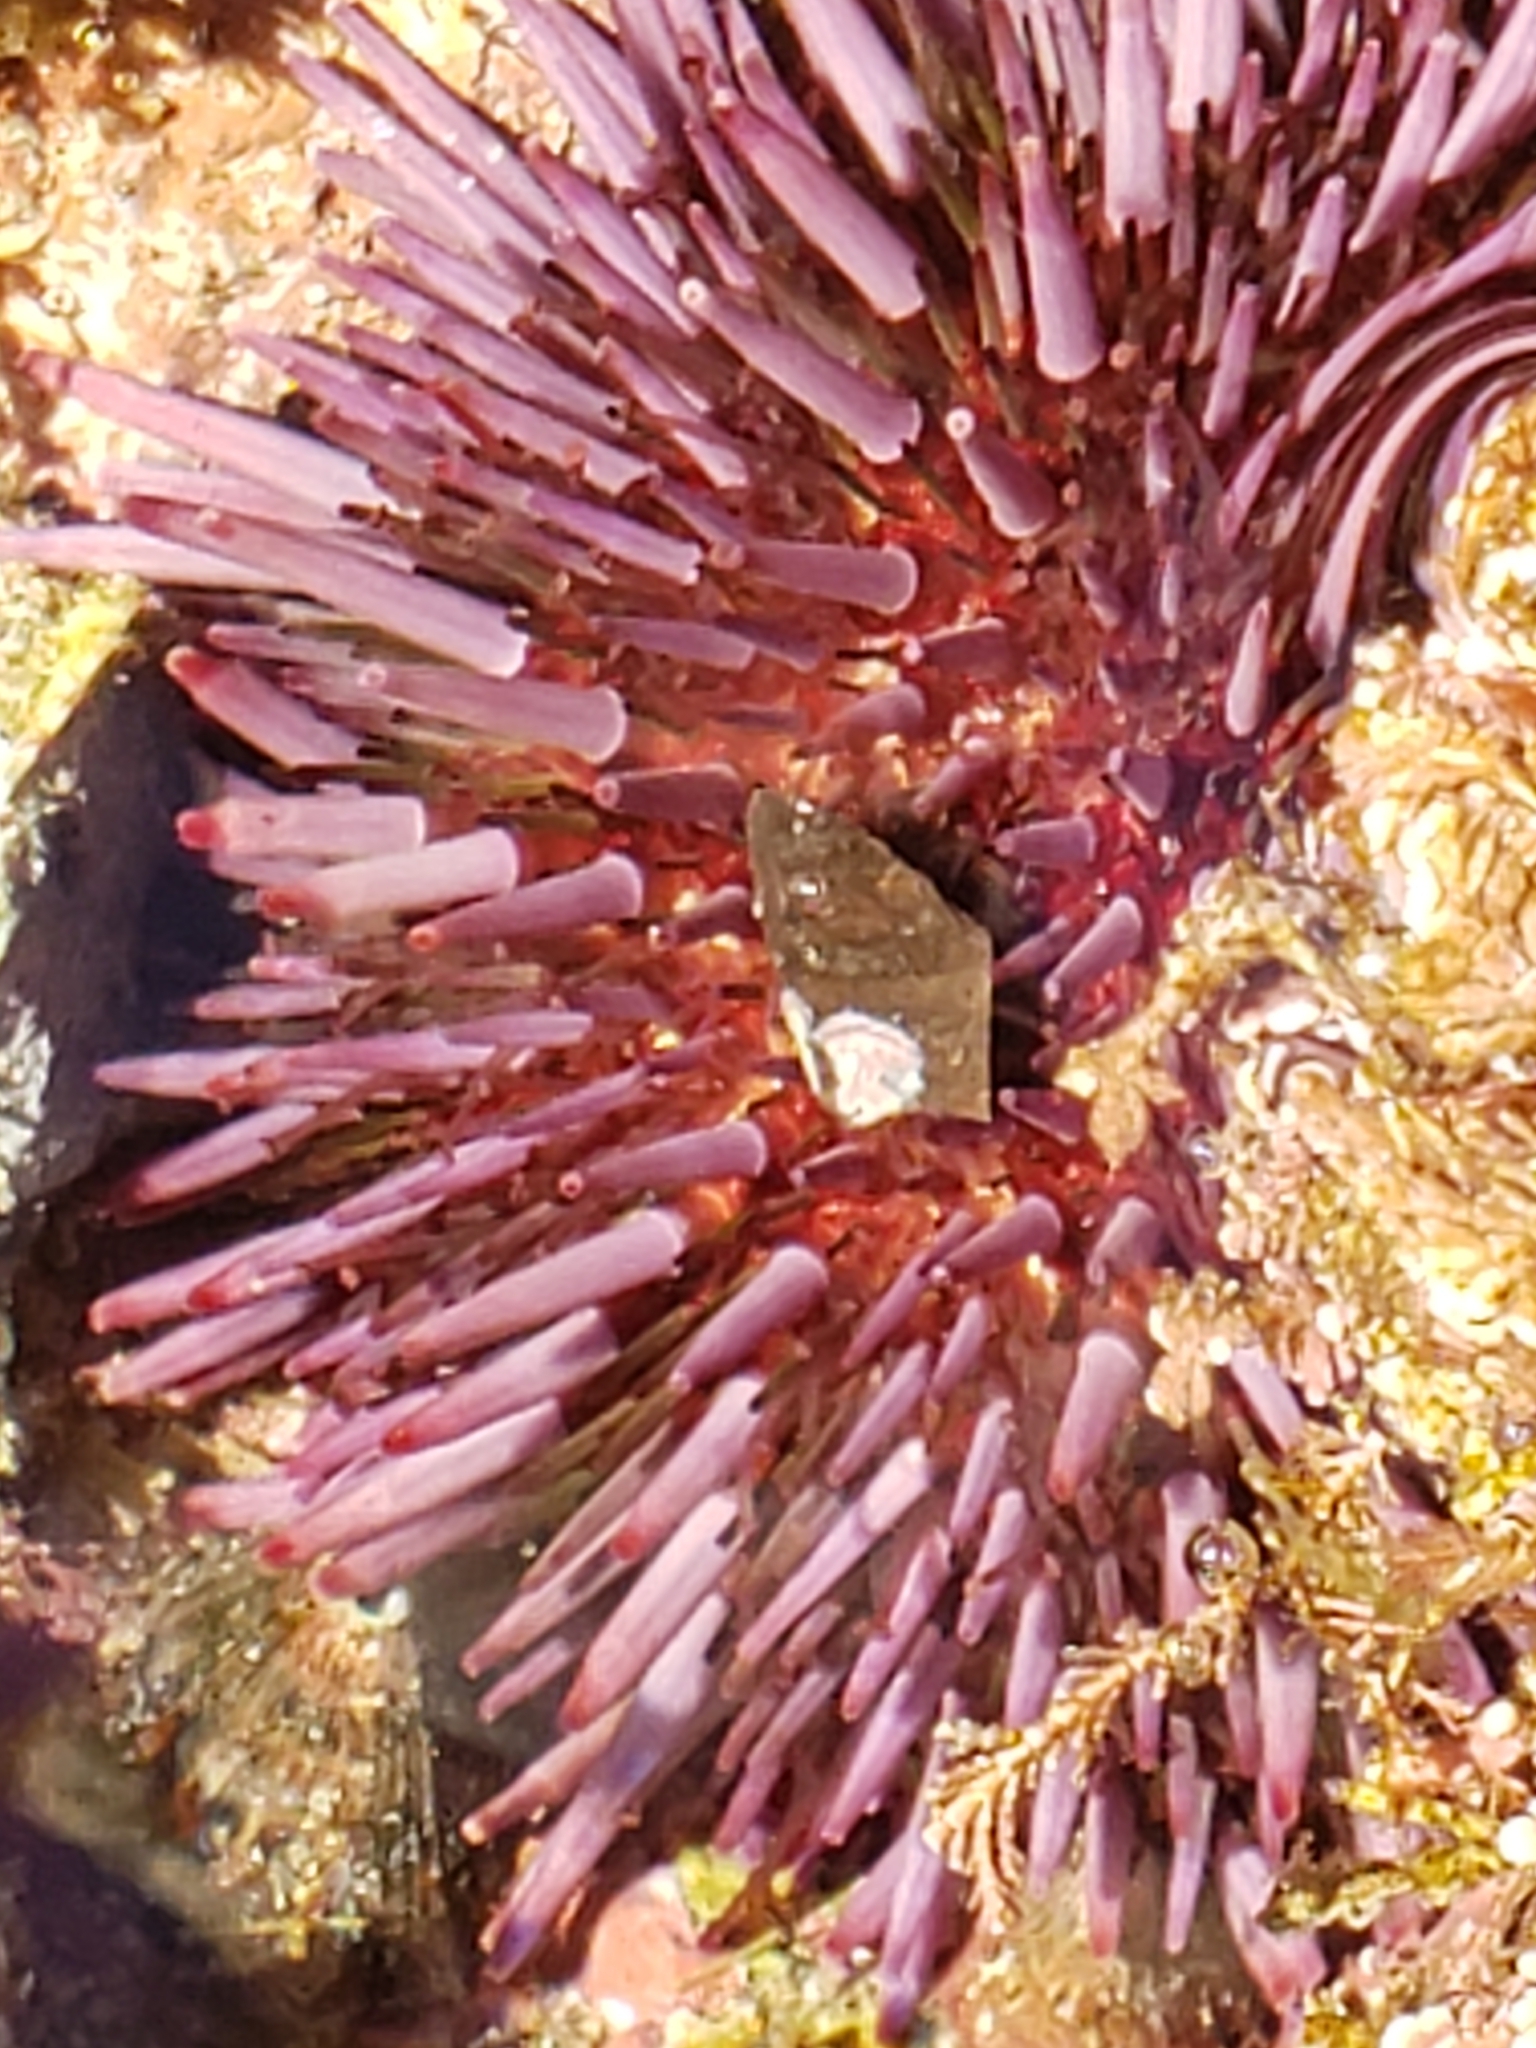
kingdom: Animalia
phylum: Echinodermata
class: Echinoidea
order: Camarodonta
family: Strongylocentrotidae
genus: Strongylocentrotus
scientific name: Strongylocentrotus purpuratus
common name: Purple sea urchin
